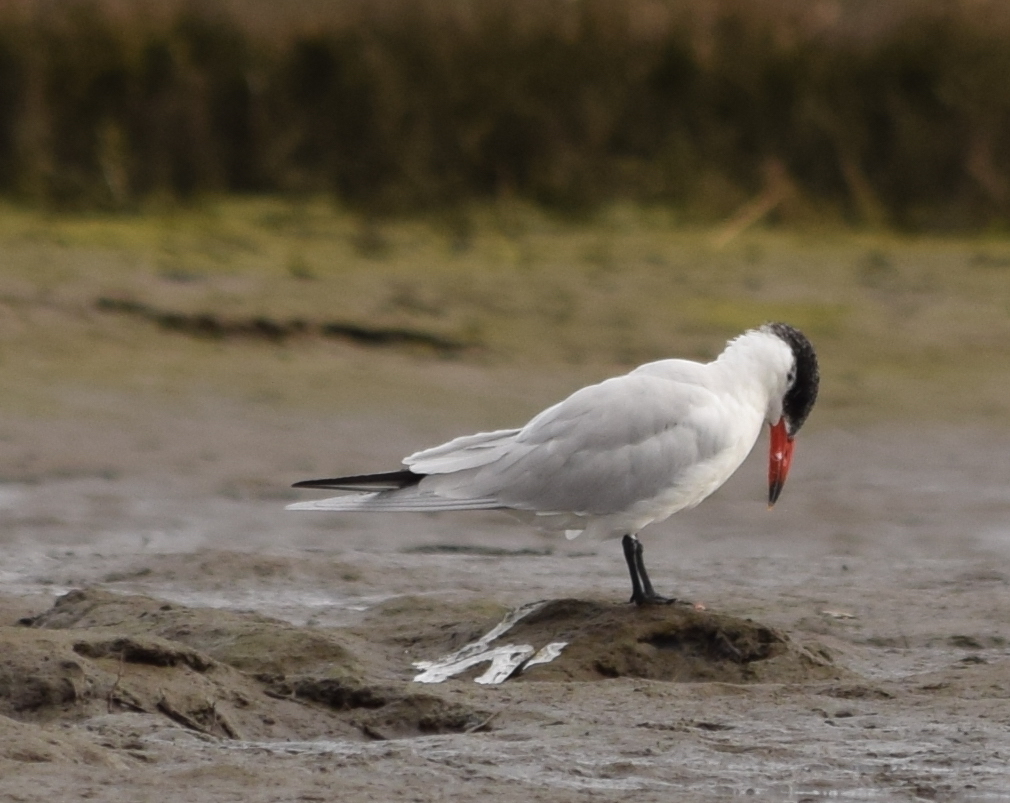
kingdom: Animalia
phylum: Chordata
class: Aves
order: Charadriiformes
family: Laridae
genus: Hydroprogne
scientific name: Hydroprogne caspia
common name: Caspian tern
